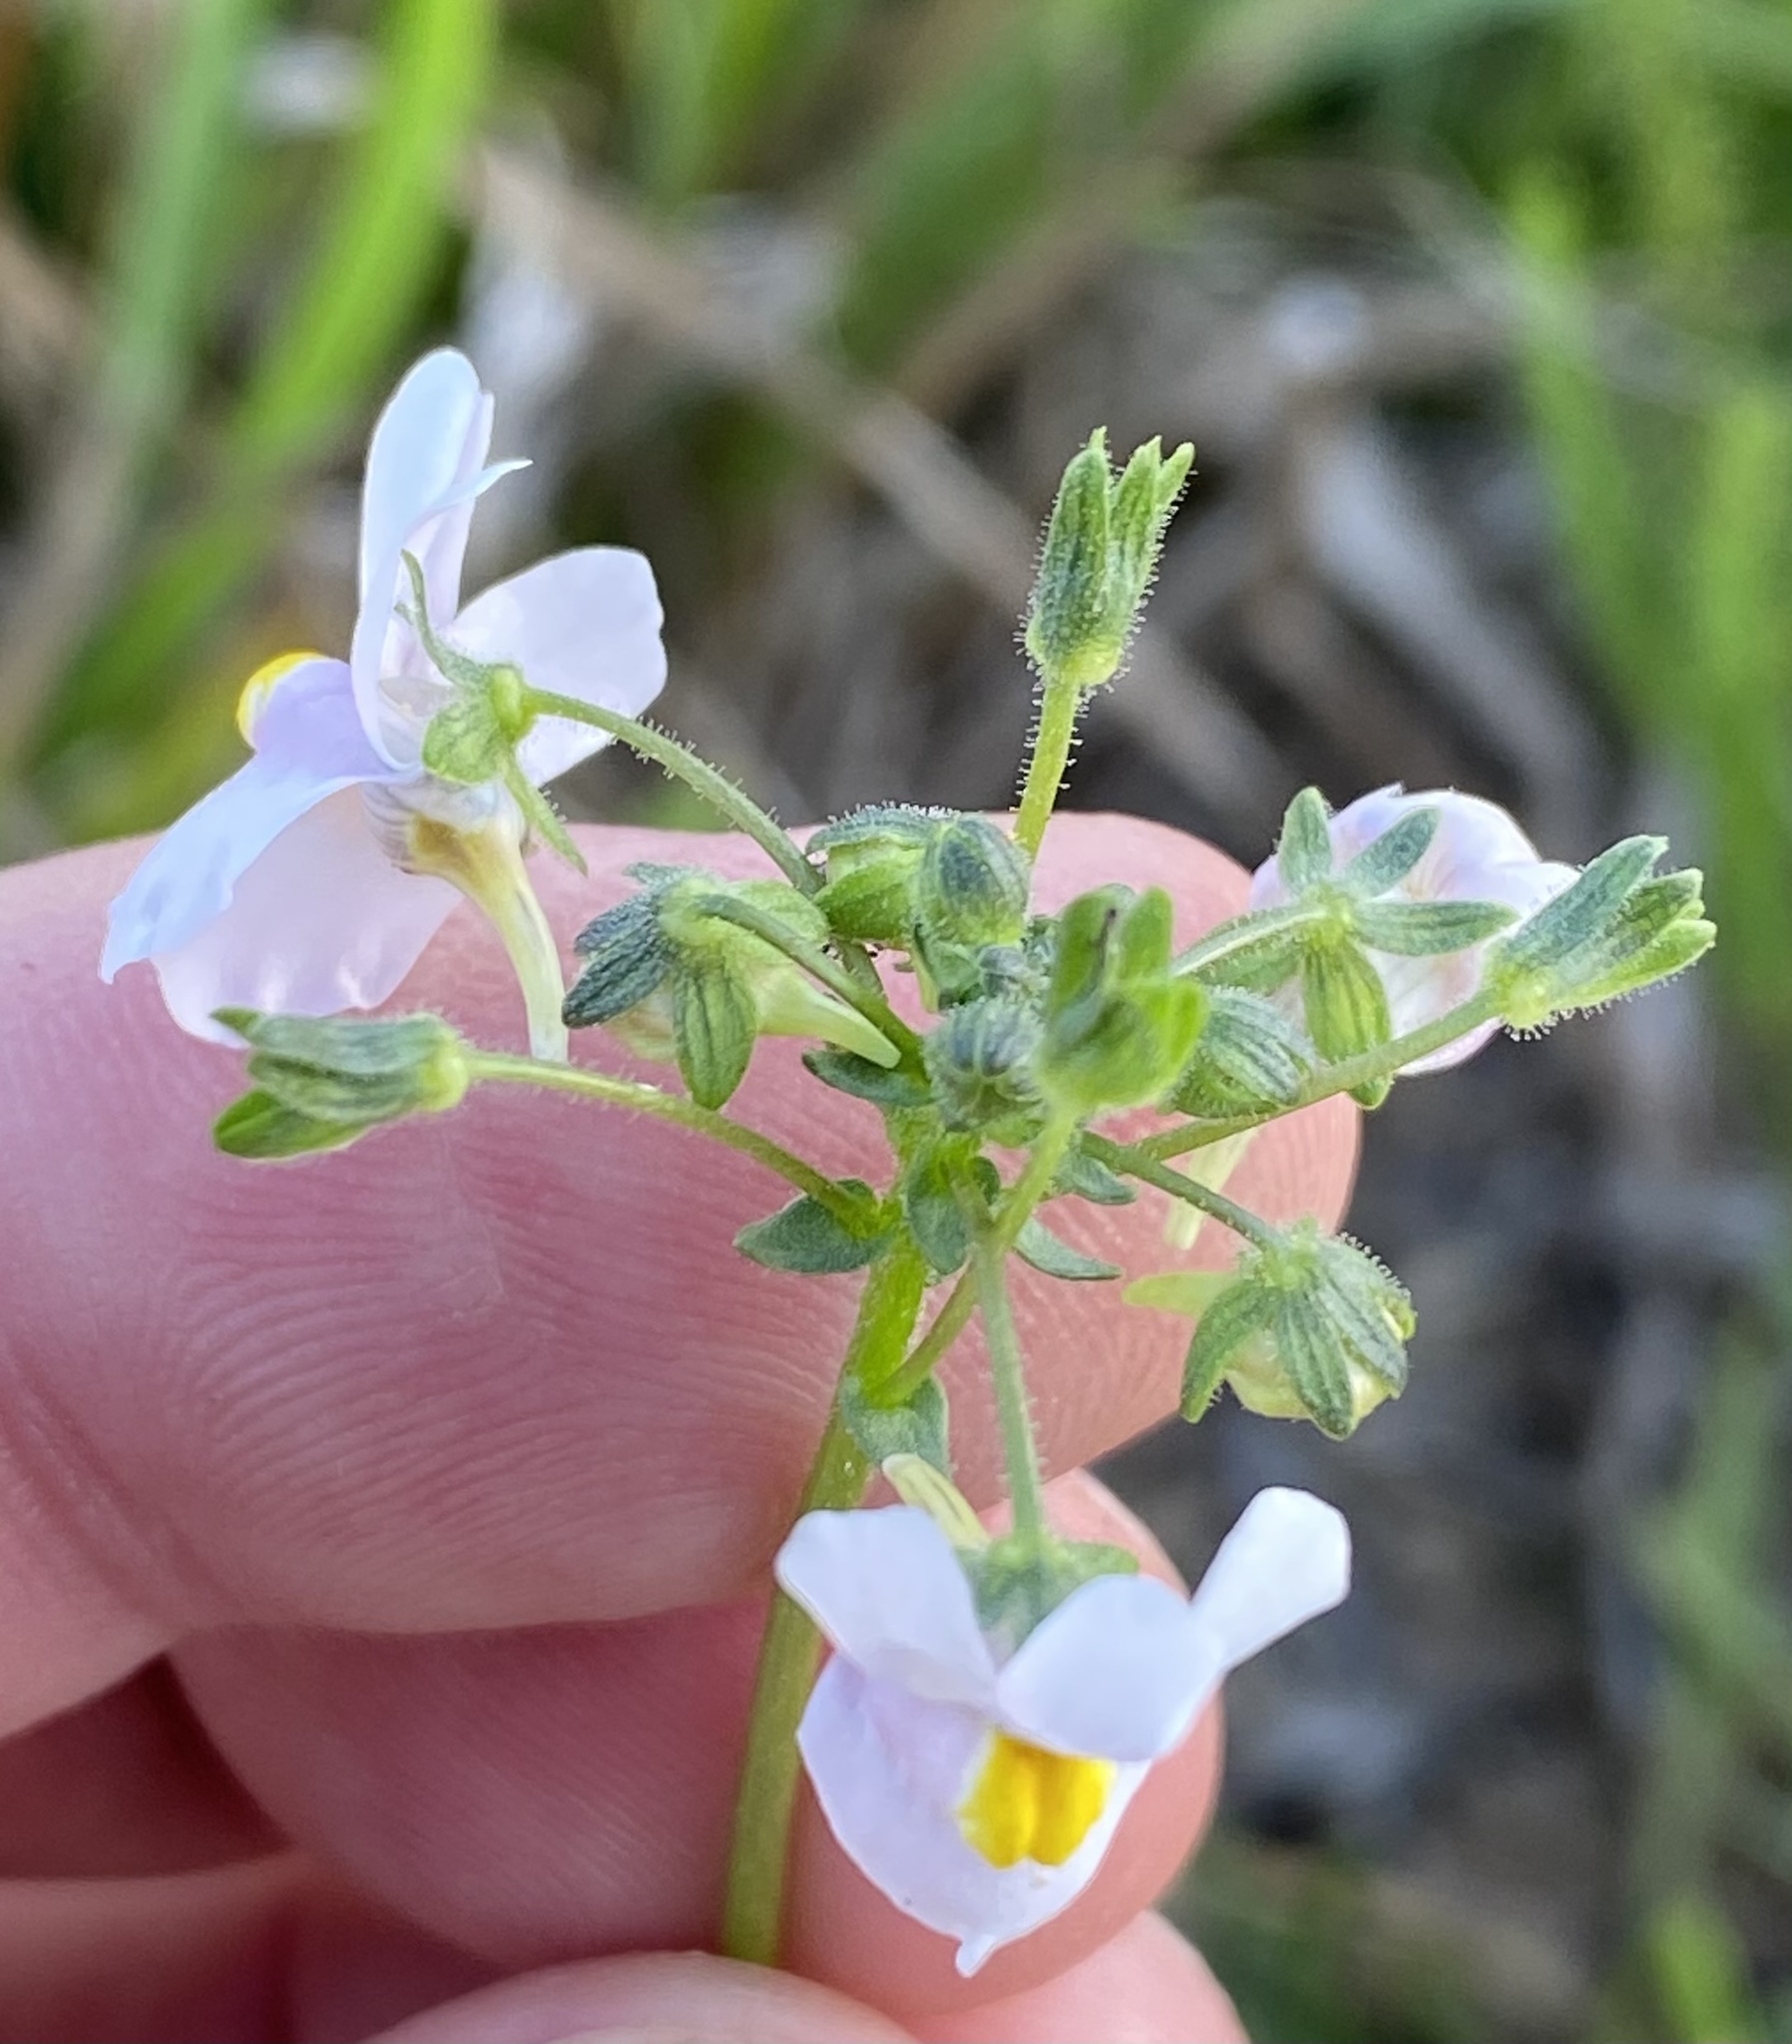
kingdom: Plantae
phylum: Tracheophyta
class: Magnoliopsida
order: Lamiales
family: Scrophulariaceae
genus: Nemesia
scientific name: Nemesia melissifolia
